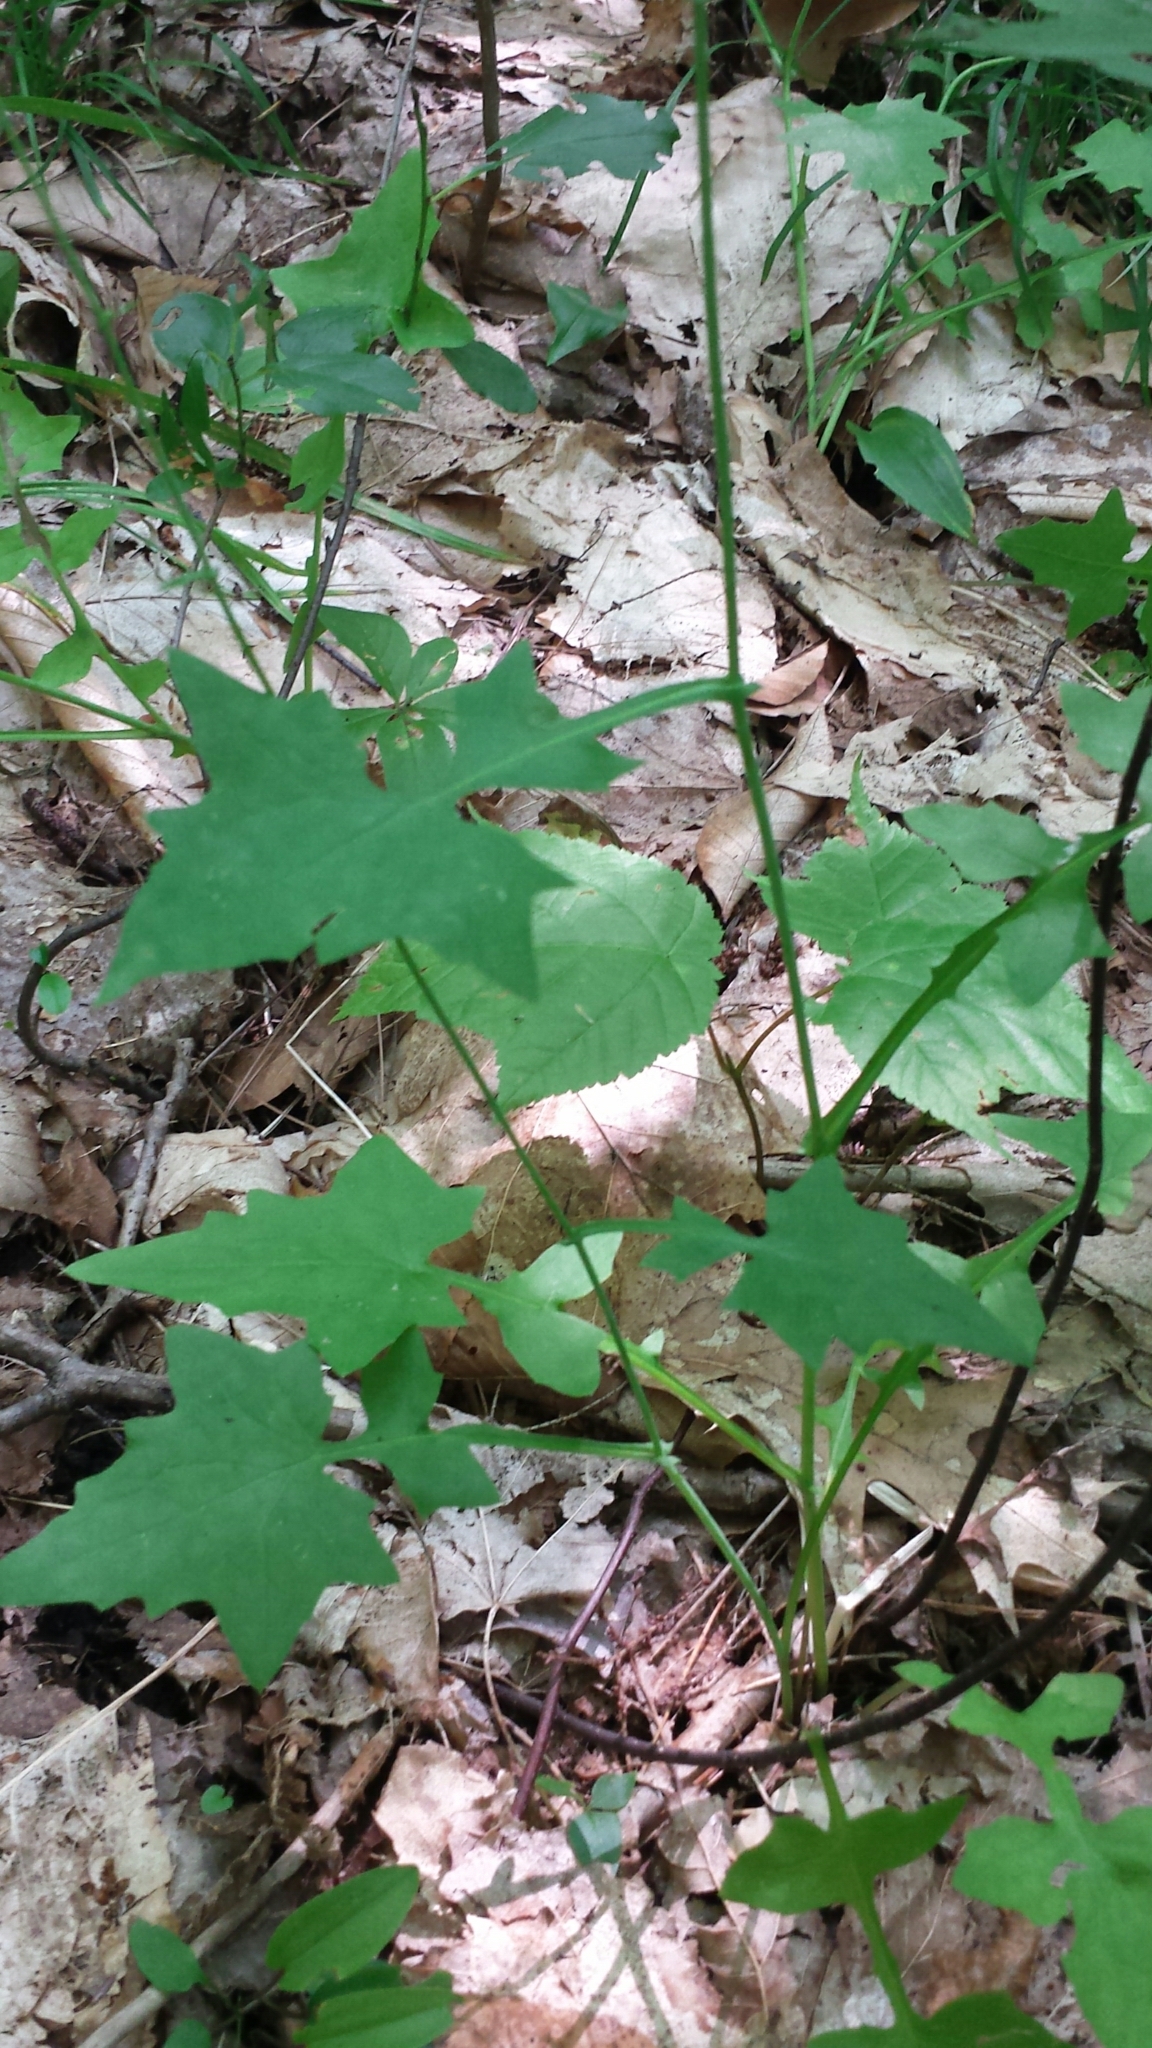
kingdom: Plantae
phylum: Tracheophyta
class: Magnoliopsida
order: Asterales
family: Asteraceae
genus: Mycelis
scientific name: Mycelis muralis
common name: Wall lettuce
